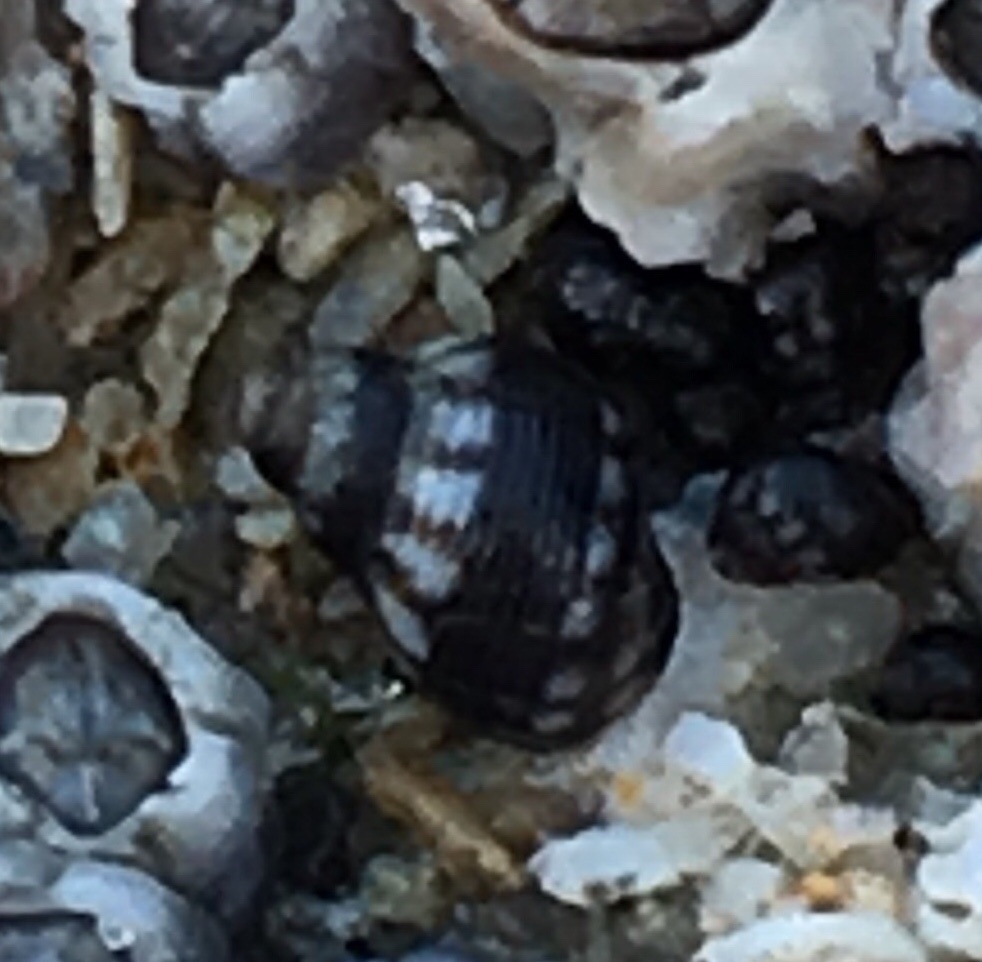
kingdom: Animalia
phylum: Mollusca
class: Gastropoda
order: Littorinimorpha
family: Littorinidae
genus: Echinolittorina
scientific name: Echinolittorina placida
